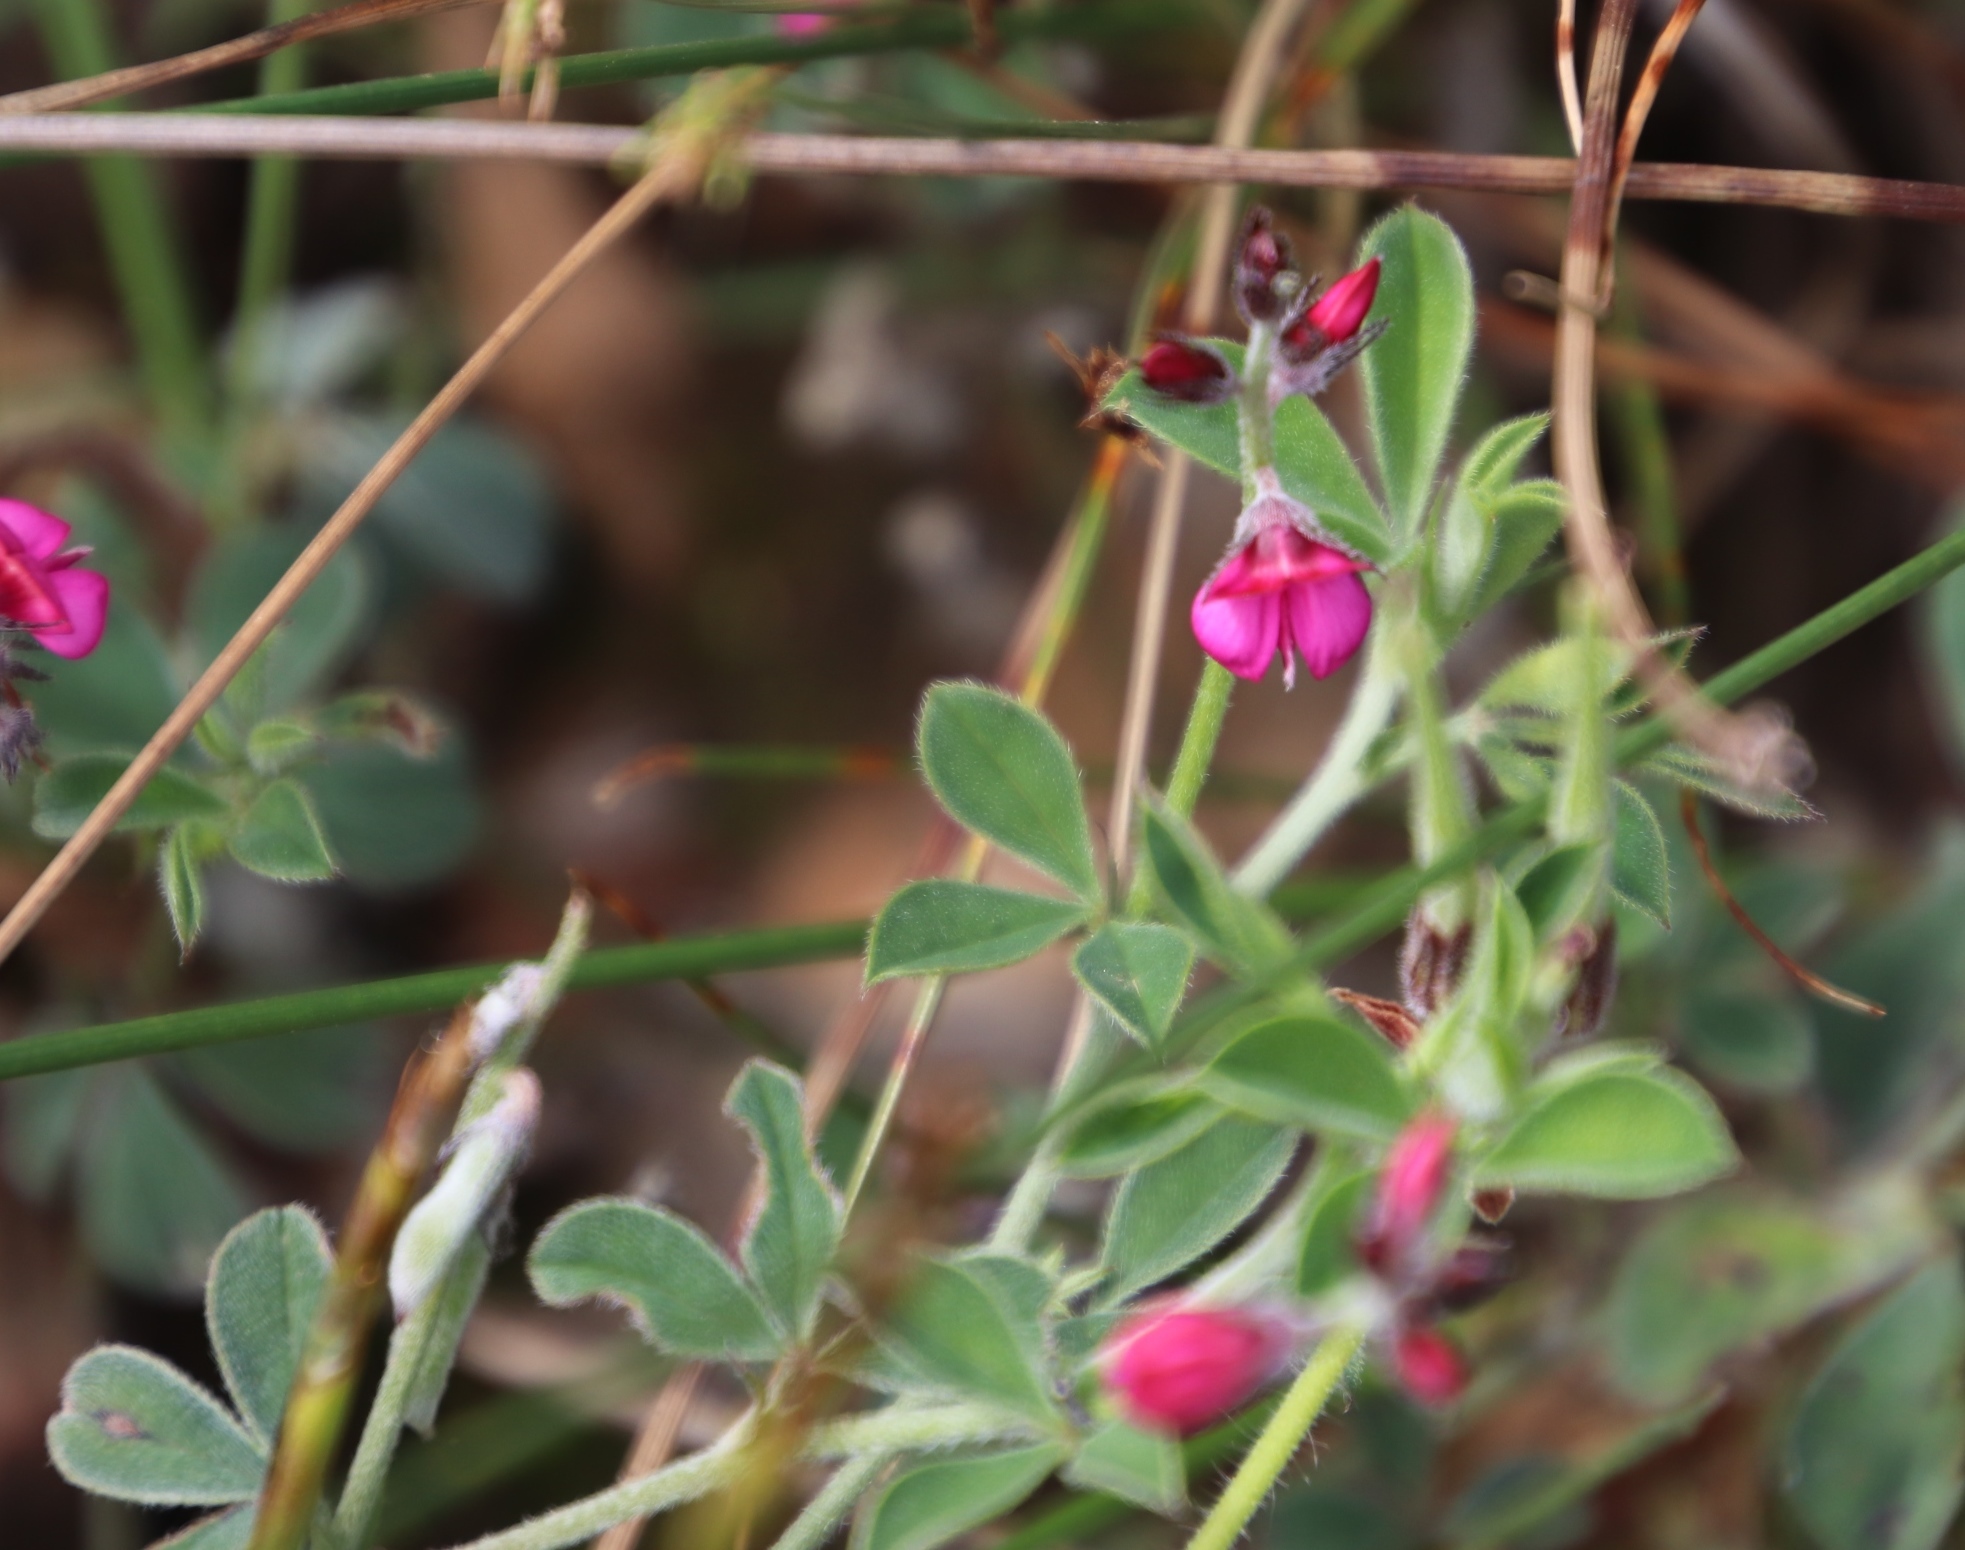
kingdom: Plantae
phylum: Tracheophyta
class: Magnoliopsida
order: Fabales
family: Fabaceae
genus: Indigofera
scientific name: Indigofera incana
